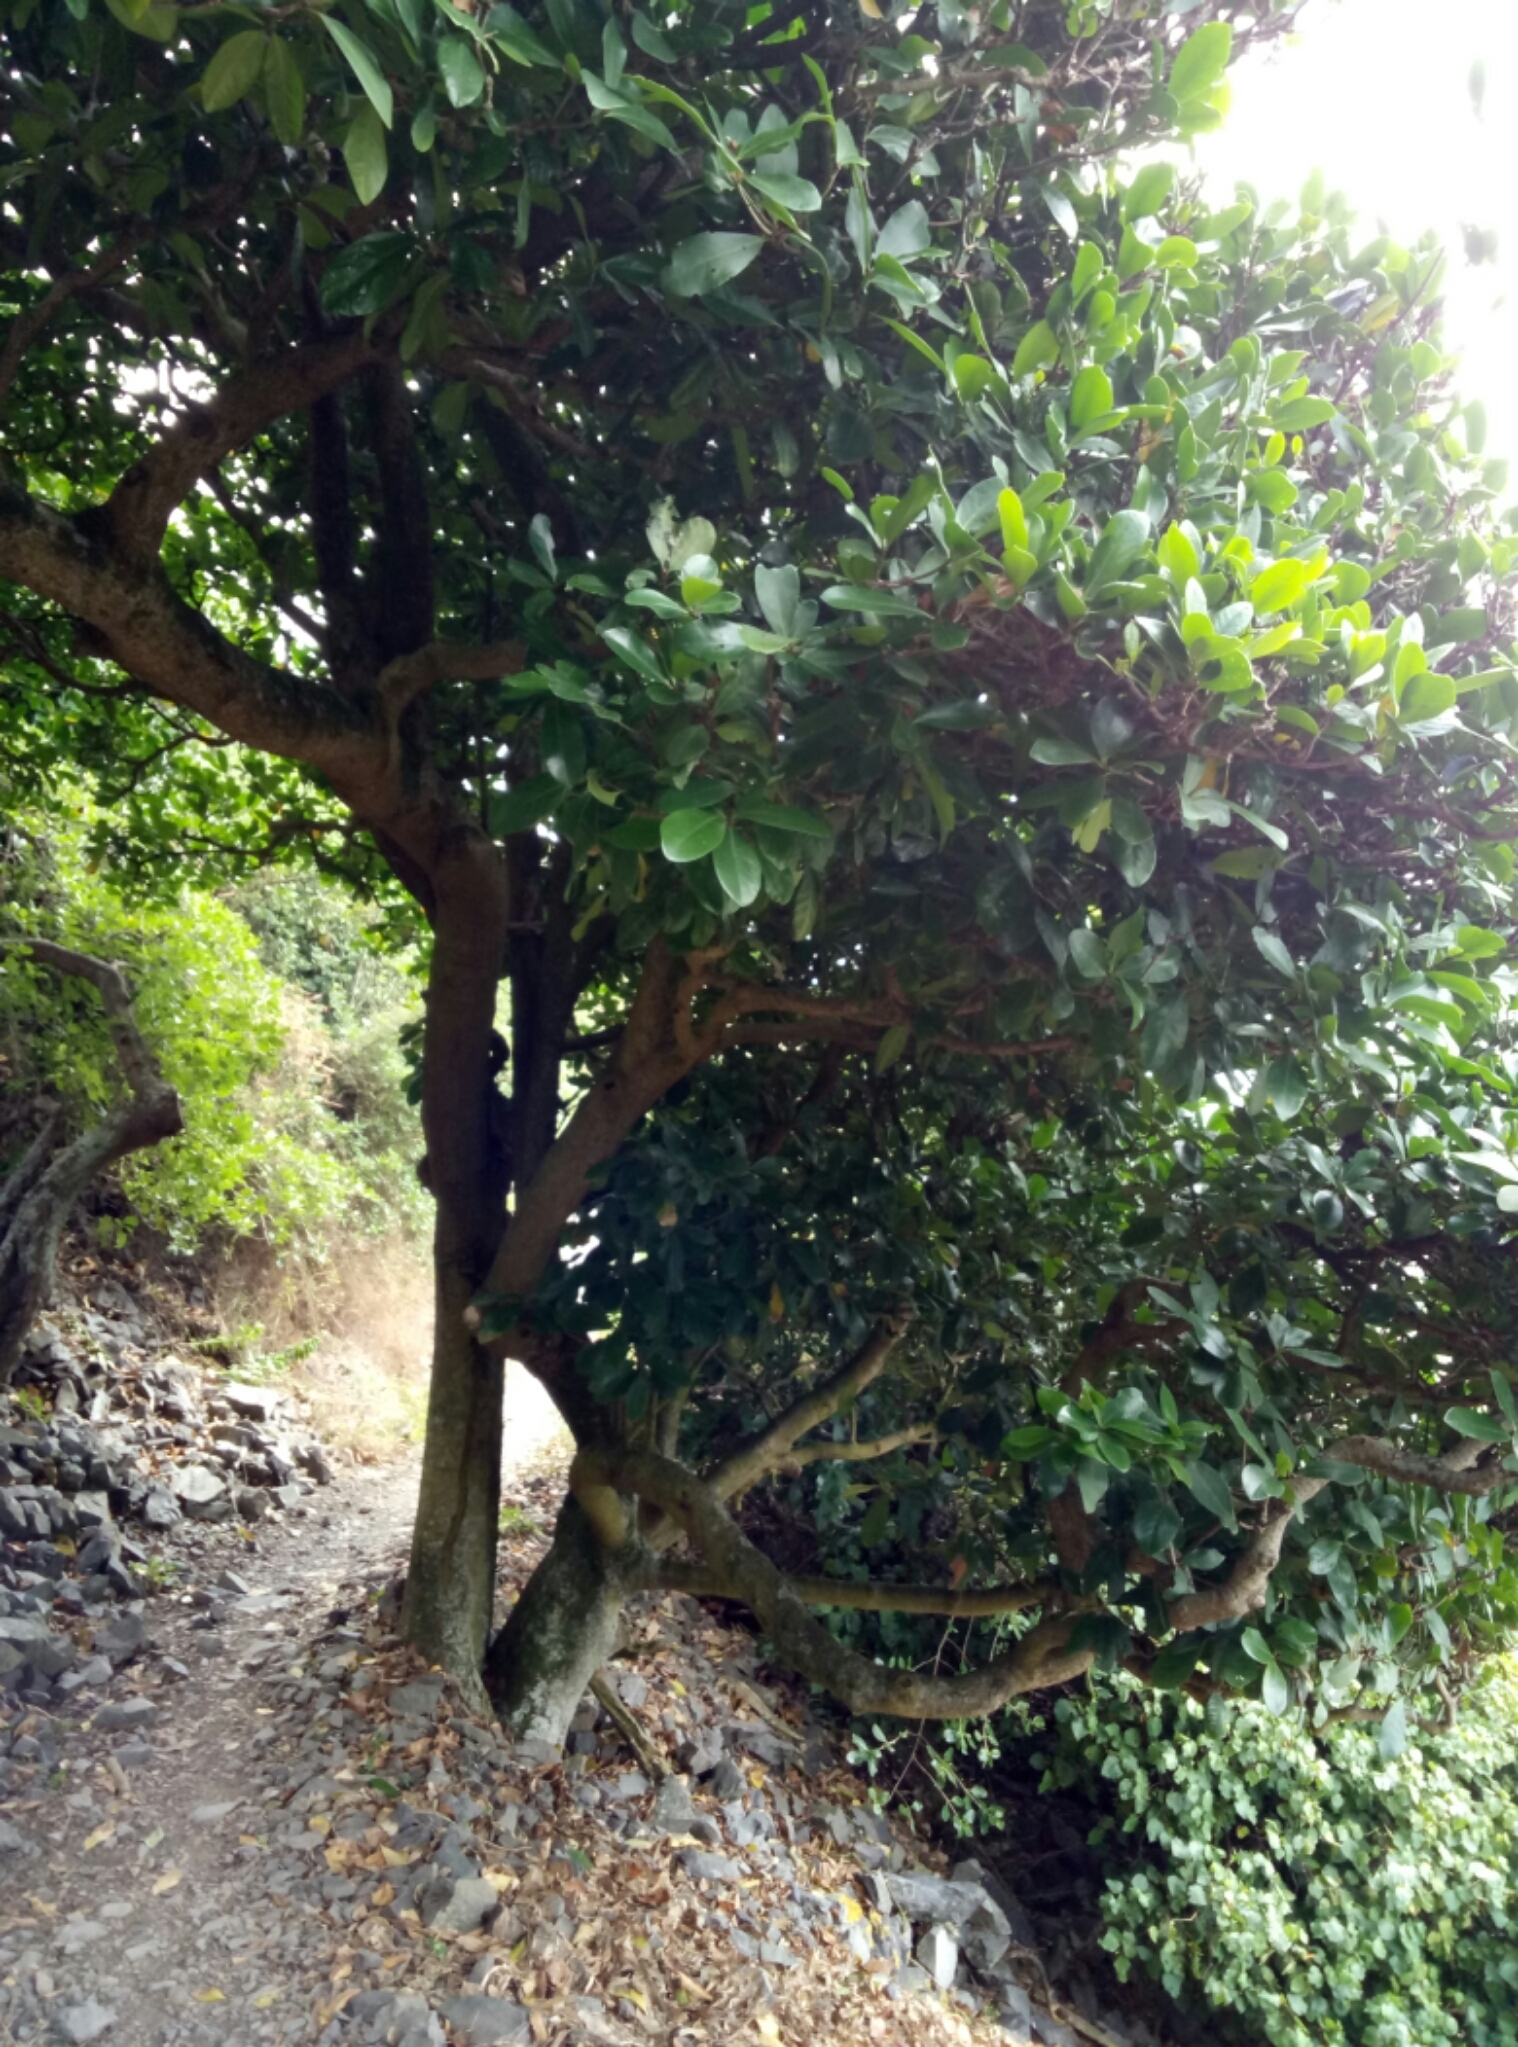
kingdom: Plantae
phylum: Tracheophyta
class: Magnoliopsida
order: Cucurbitales
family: Corynocarpaceae
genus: Corynocarpus
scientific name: Corynocarpus laevigatus
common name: New zealand laurel
